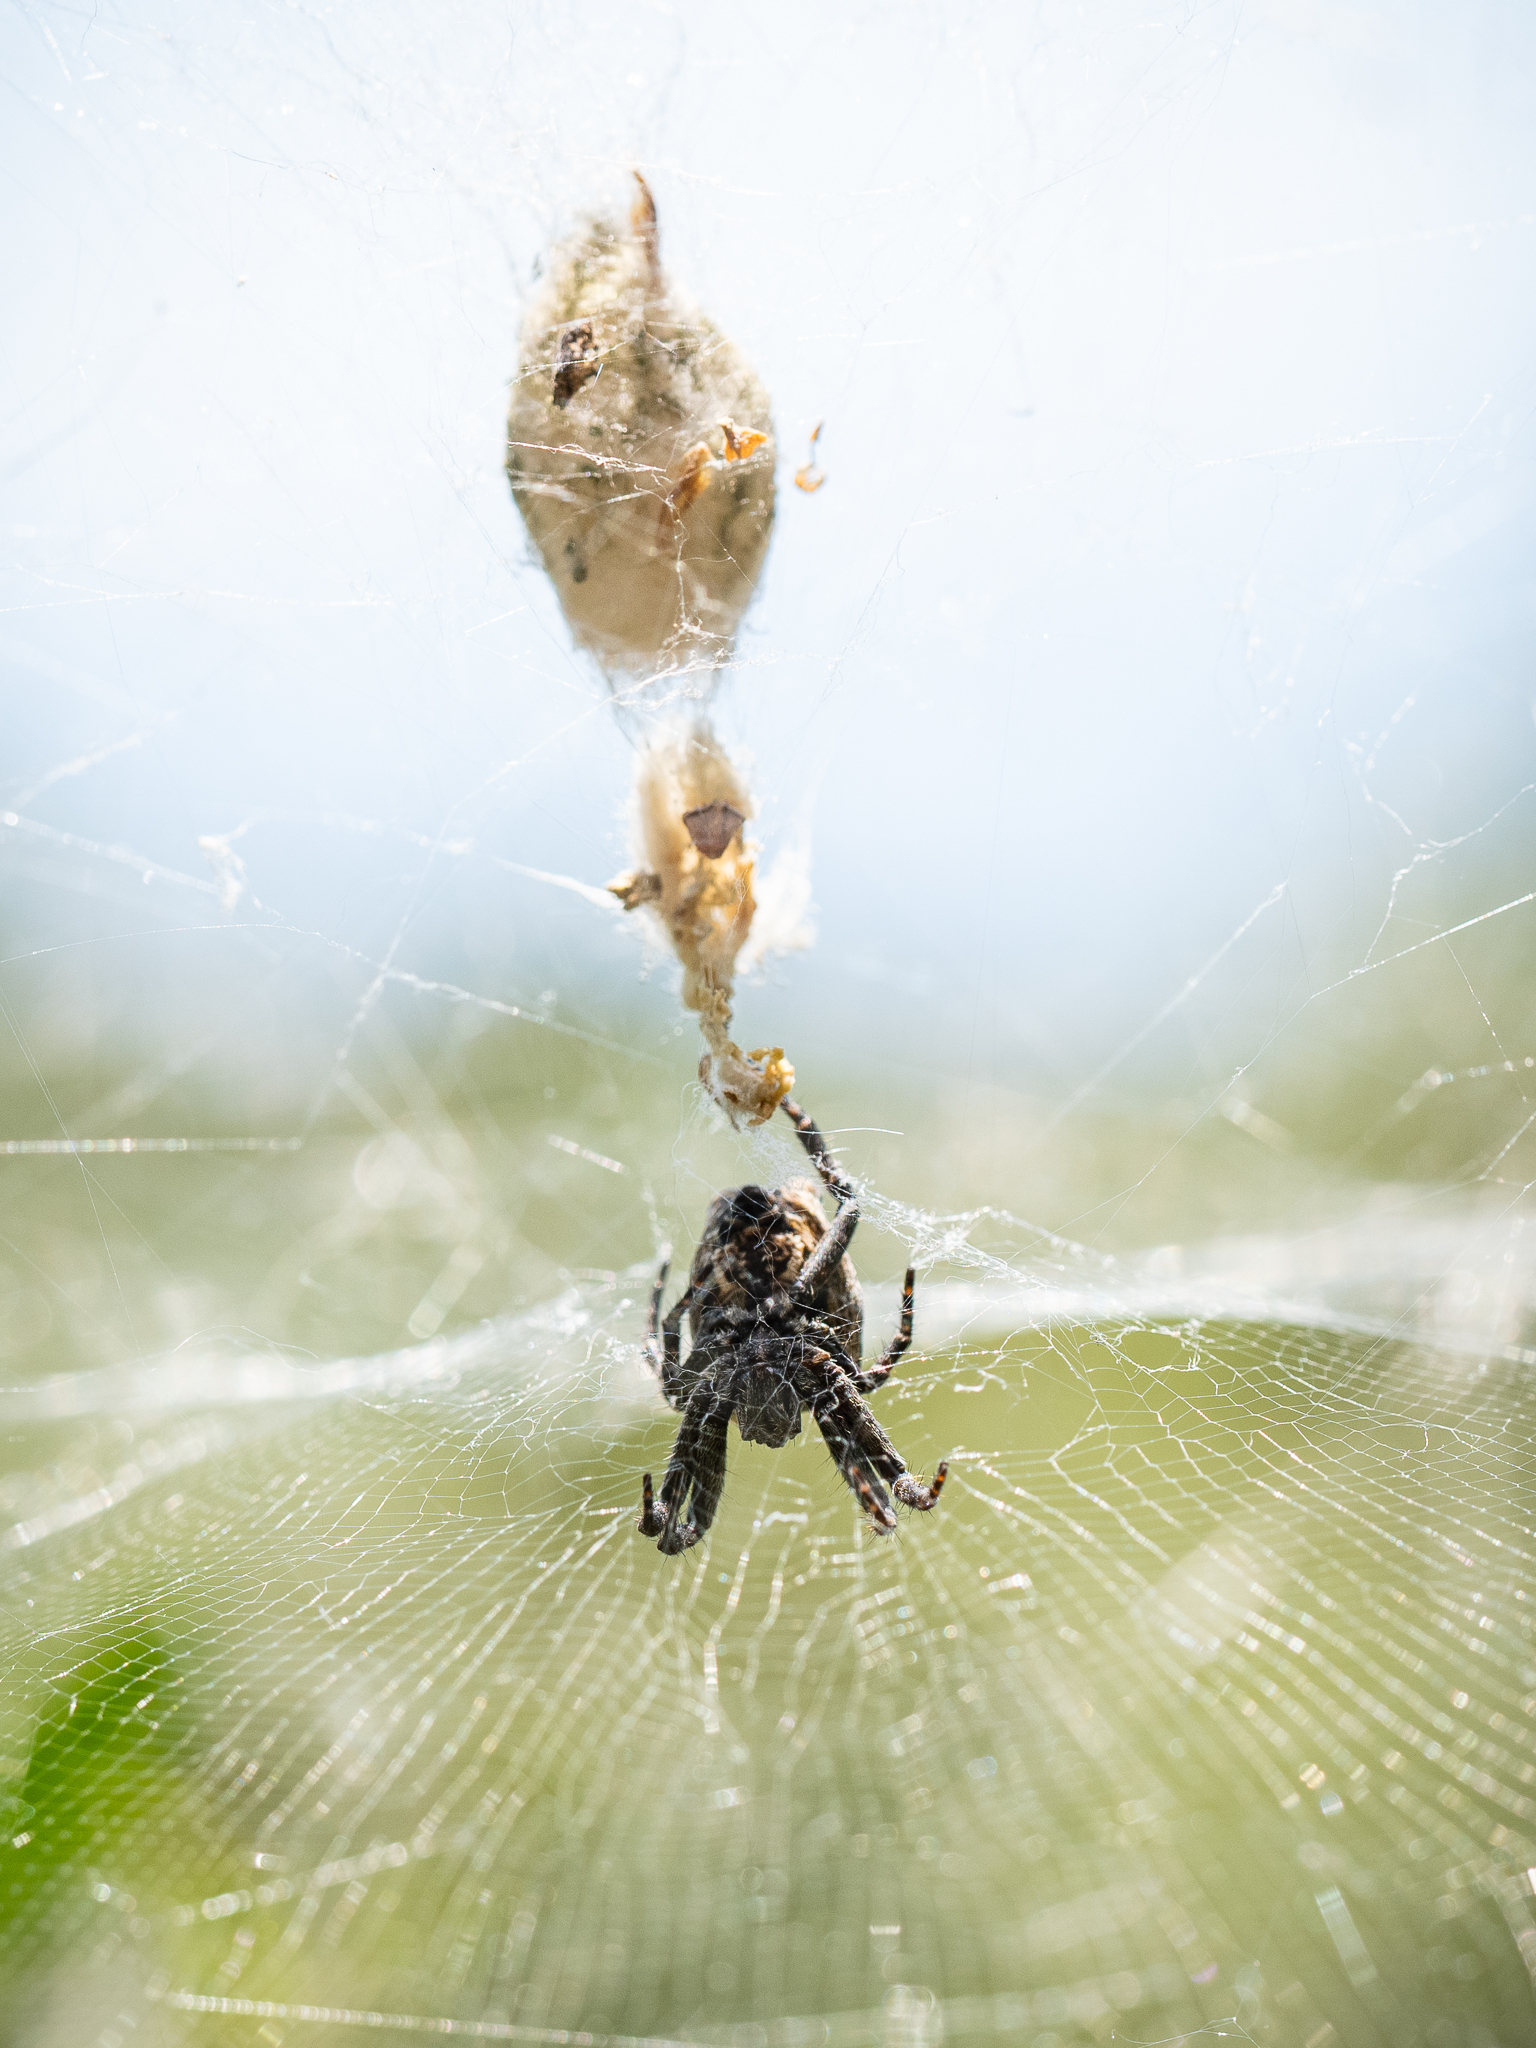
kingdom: Animalia
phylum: Arthropoda
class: Arachnida
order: Araneae
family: Araneidae
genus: Cyrtophora
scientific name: Cyrtophora citricola
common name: Orb weavers
